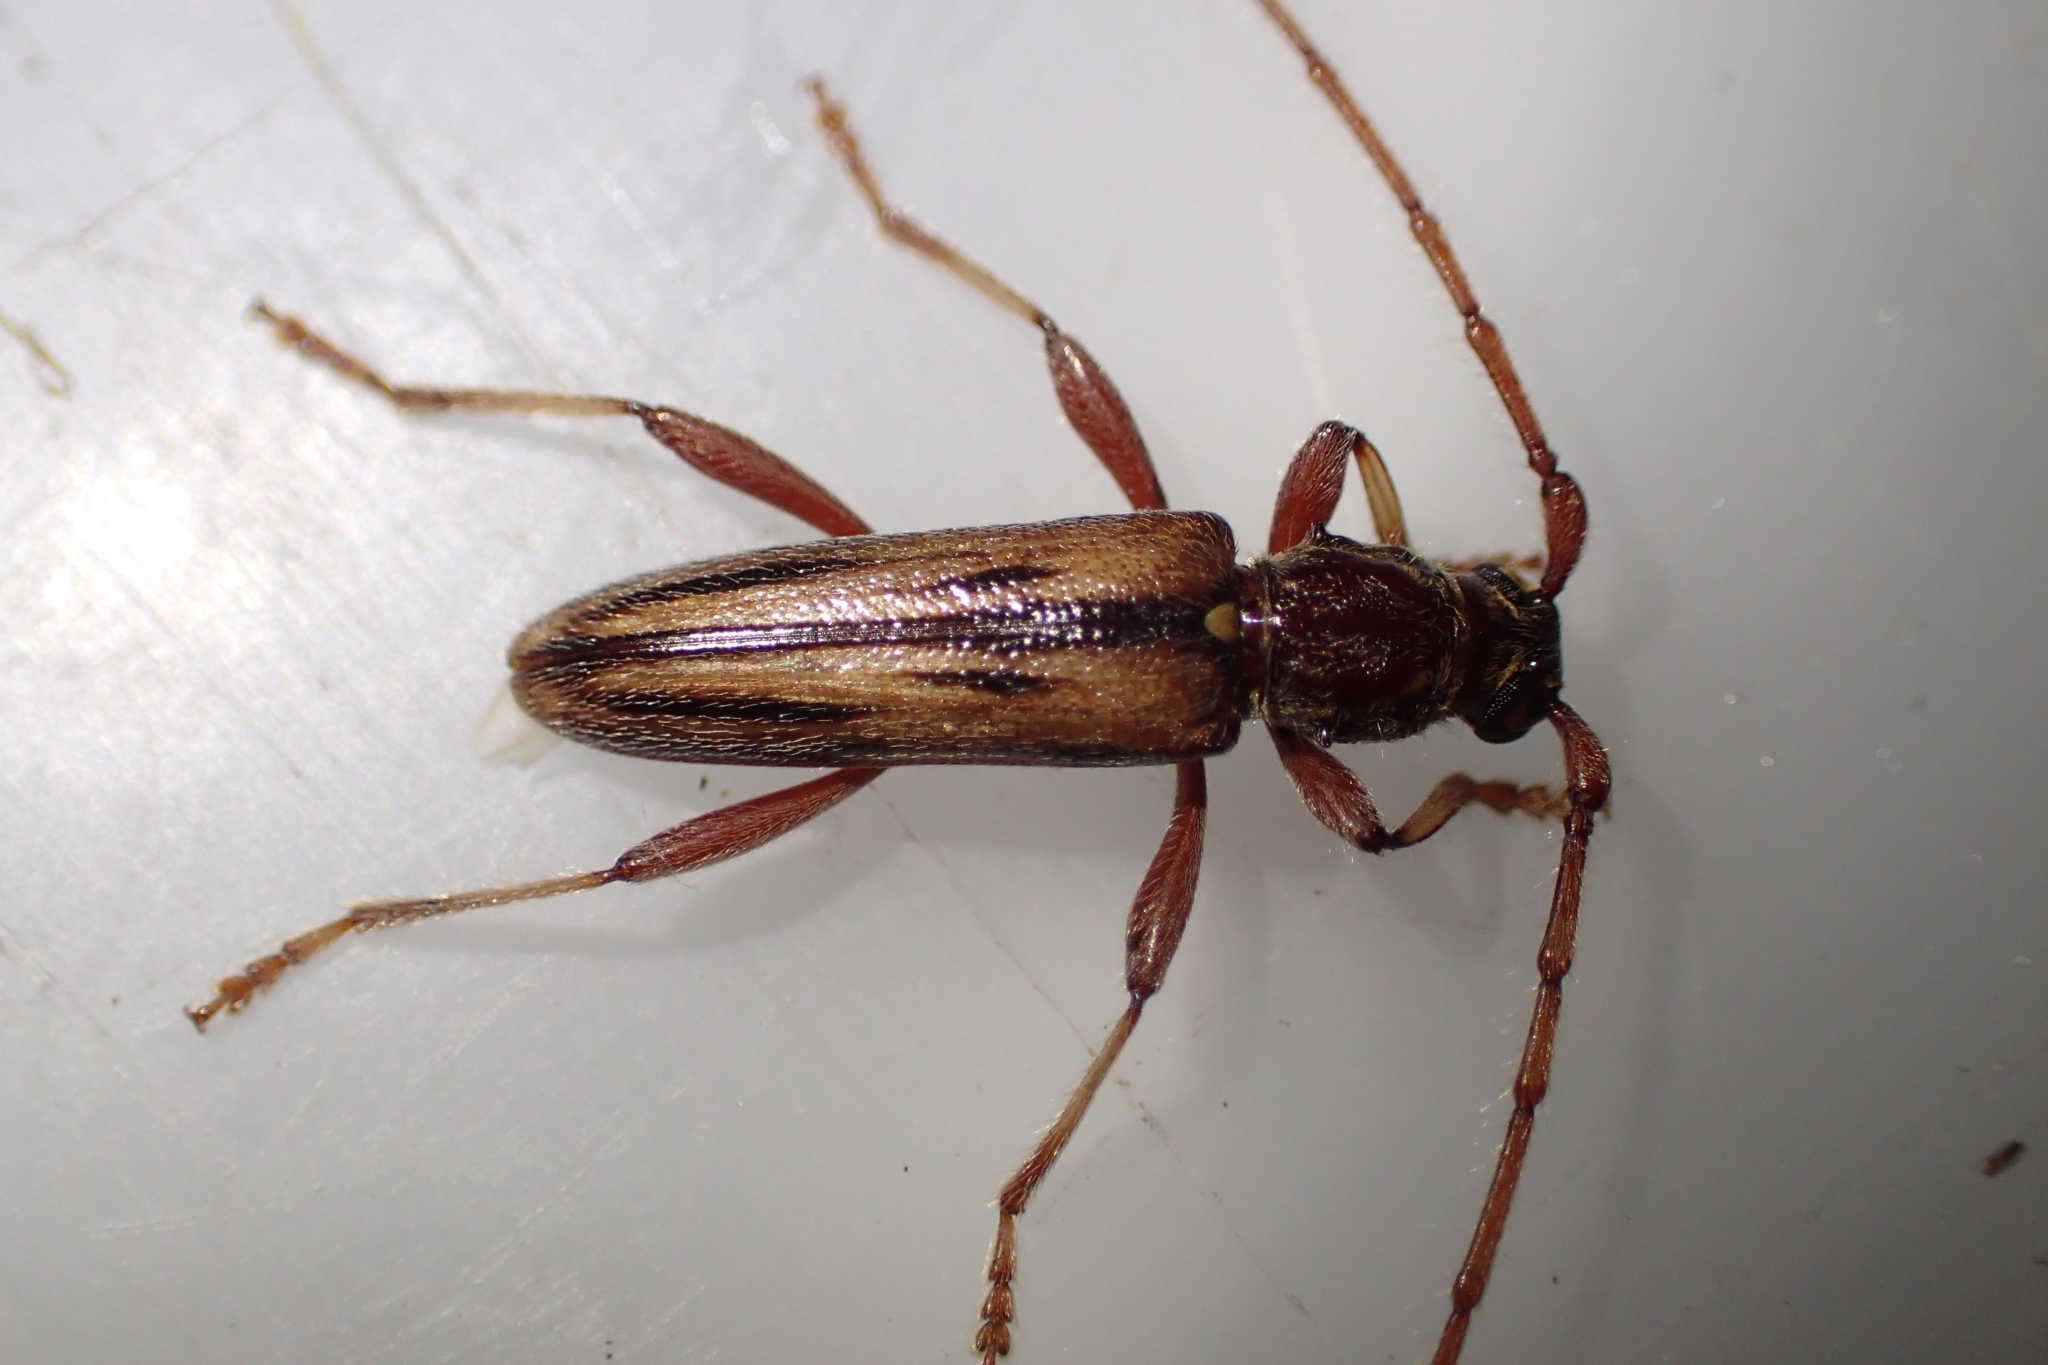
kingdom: Animalia
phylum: Arthropoda
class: Insecta
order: Coleoptera
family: Cerambycidae
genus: Didymocantha
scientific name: Didymocantha sublineata
